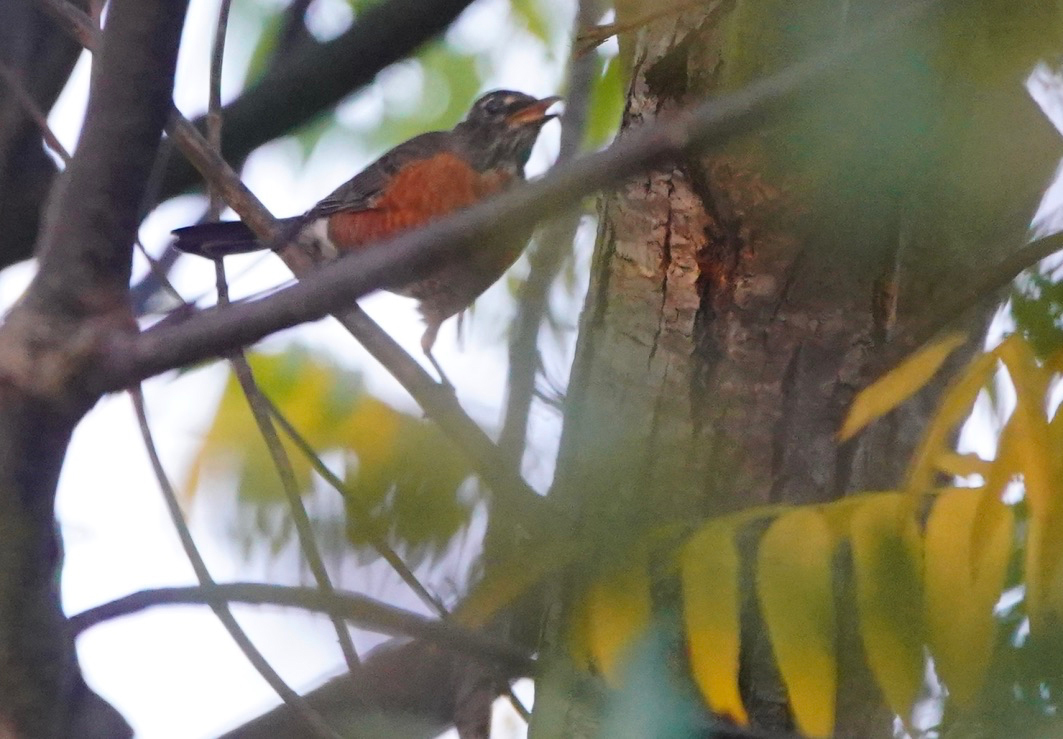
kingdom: Animalia
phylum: Chordata
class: Aves
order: Passeriformes
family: Turdidae
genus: Turdus
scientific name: Turdus migratorius
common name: American robin
